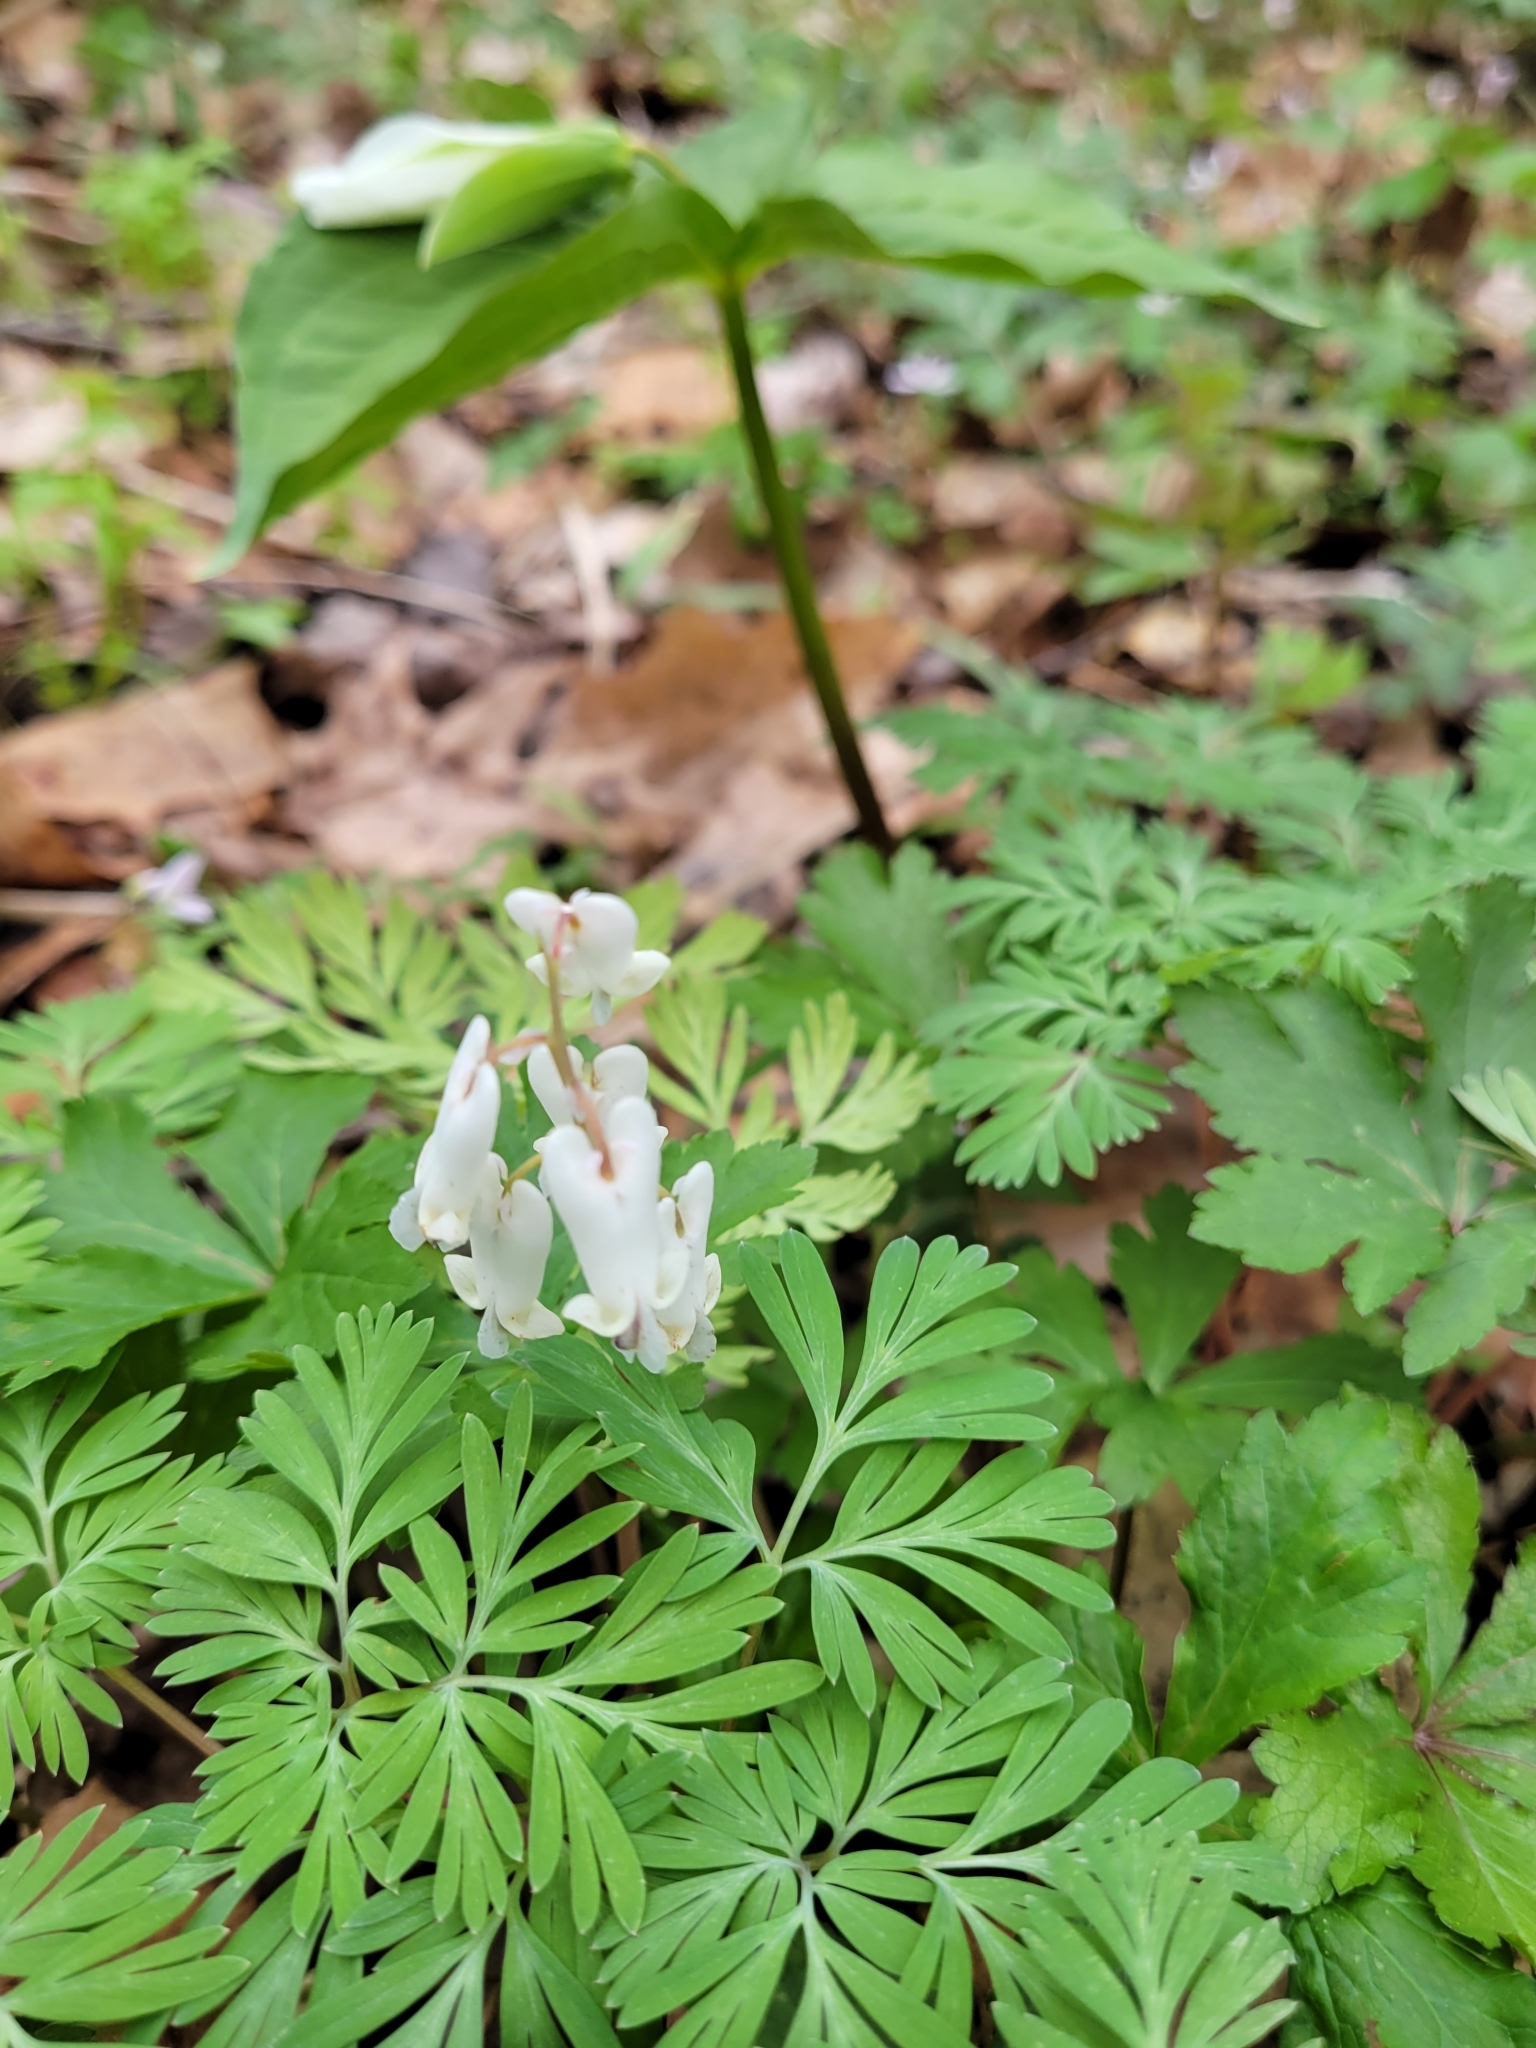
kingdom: Plantae
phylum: Tracheophyta
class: Magnoliopsida
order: Ranunculales
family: Papaveraceae
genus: Dicentra
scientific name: Dicentra canadensis
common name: Squirrel-corn
